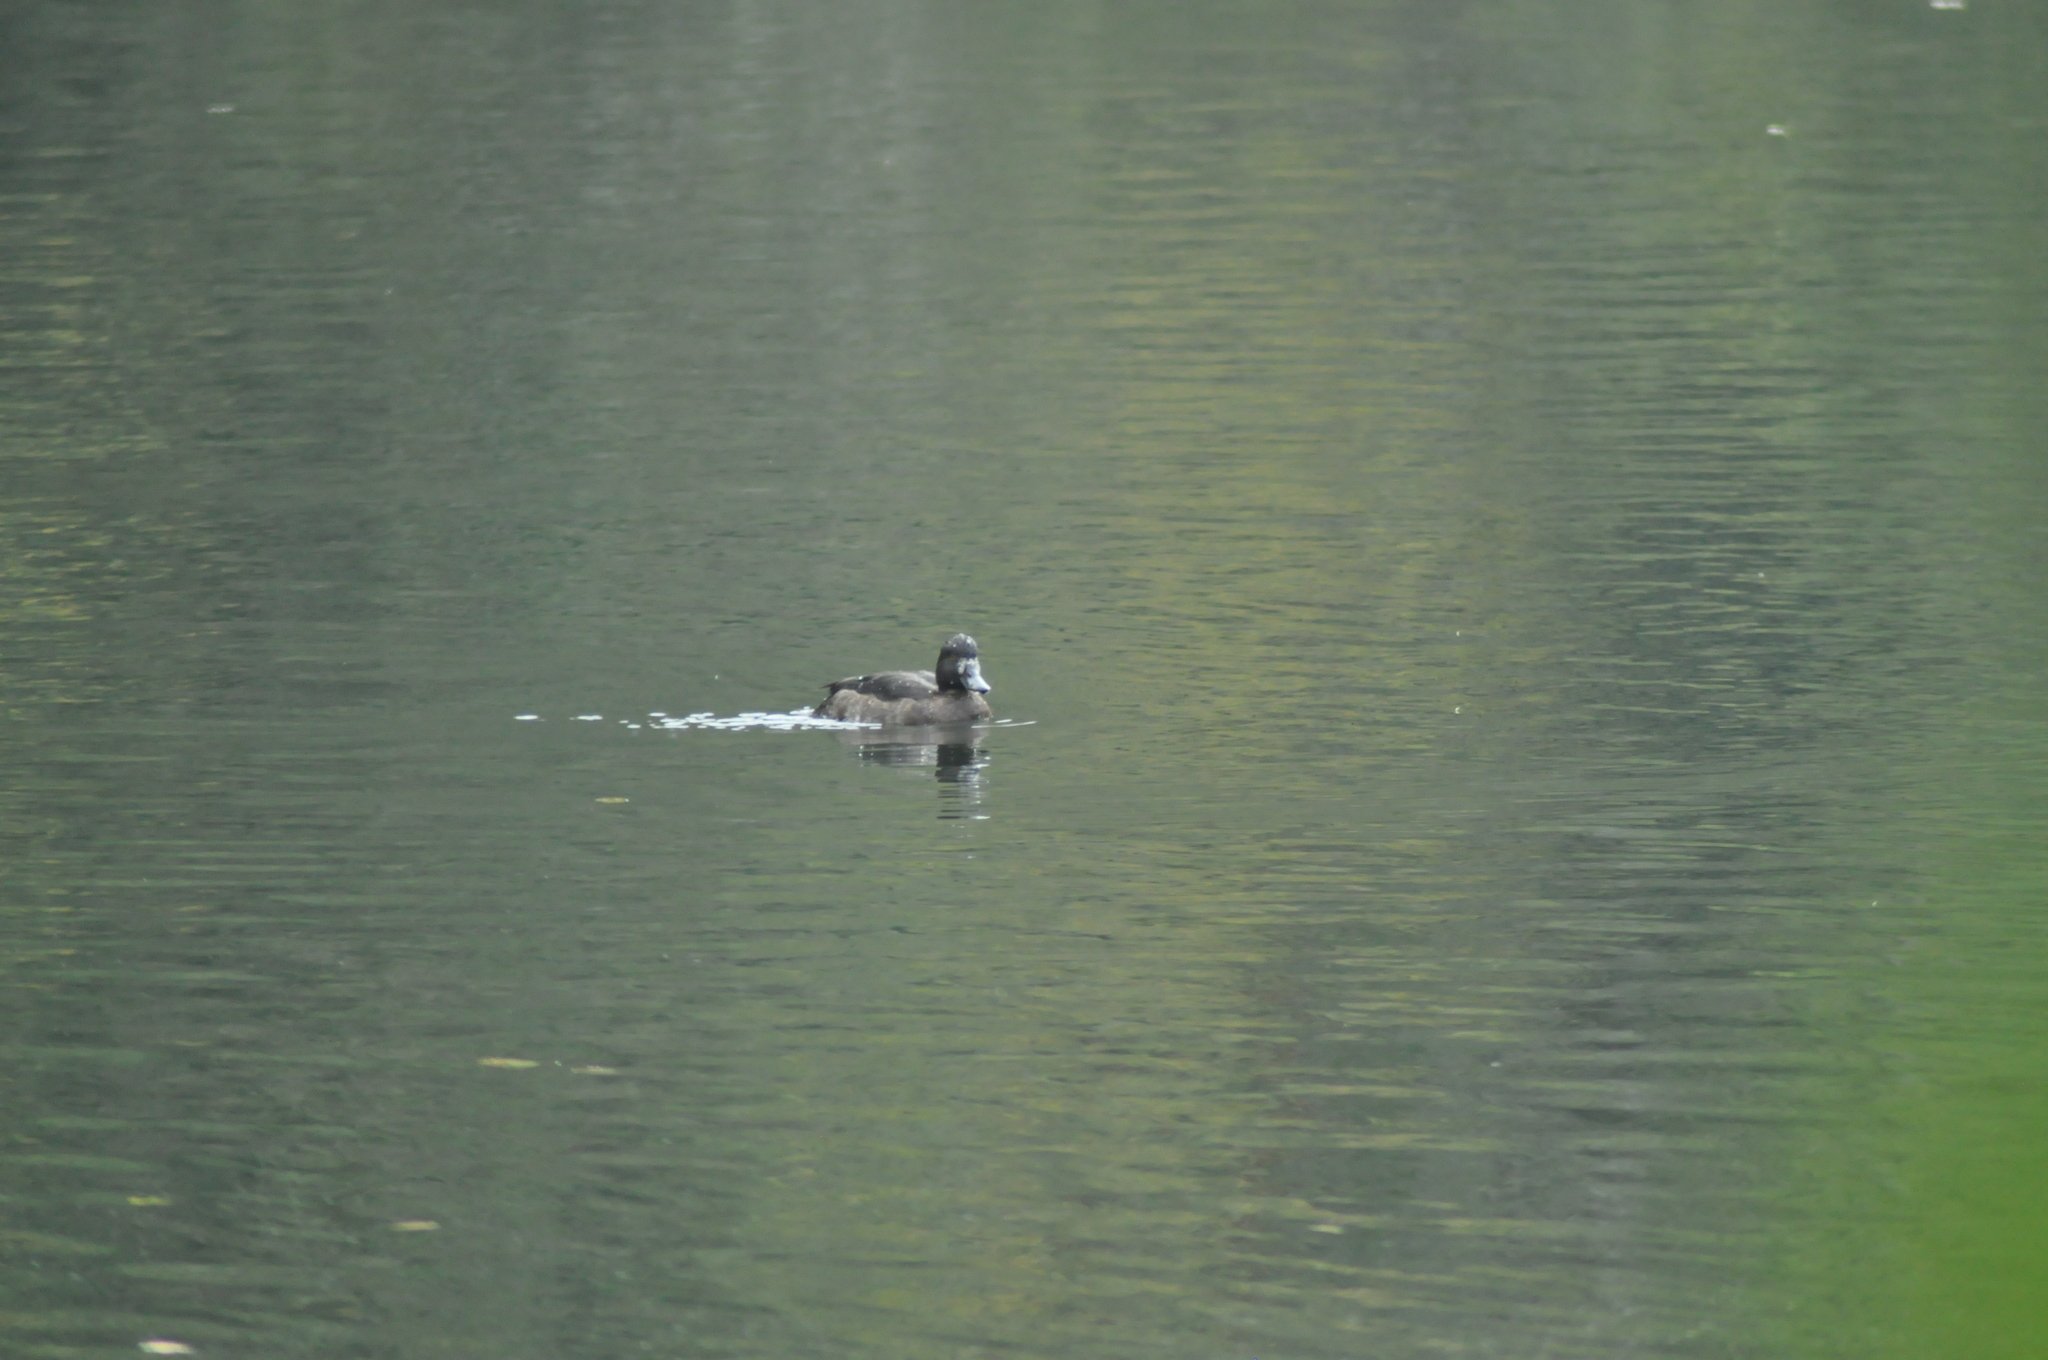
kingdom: Animalia
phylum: Chordata
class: Aves
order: Anseriformes
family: Anatidae
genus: Aythya
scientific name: Aythya fuligula
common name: Tufted duck
